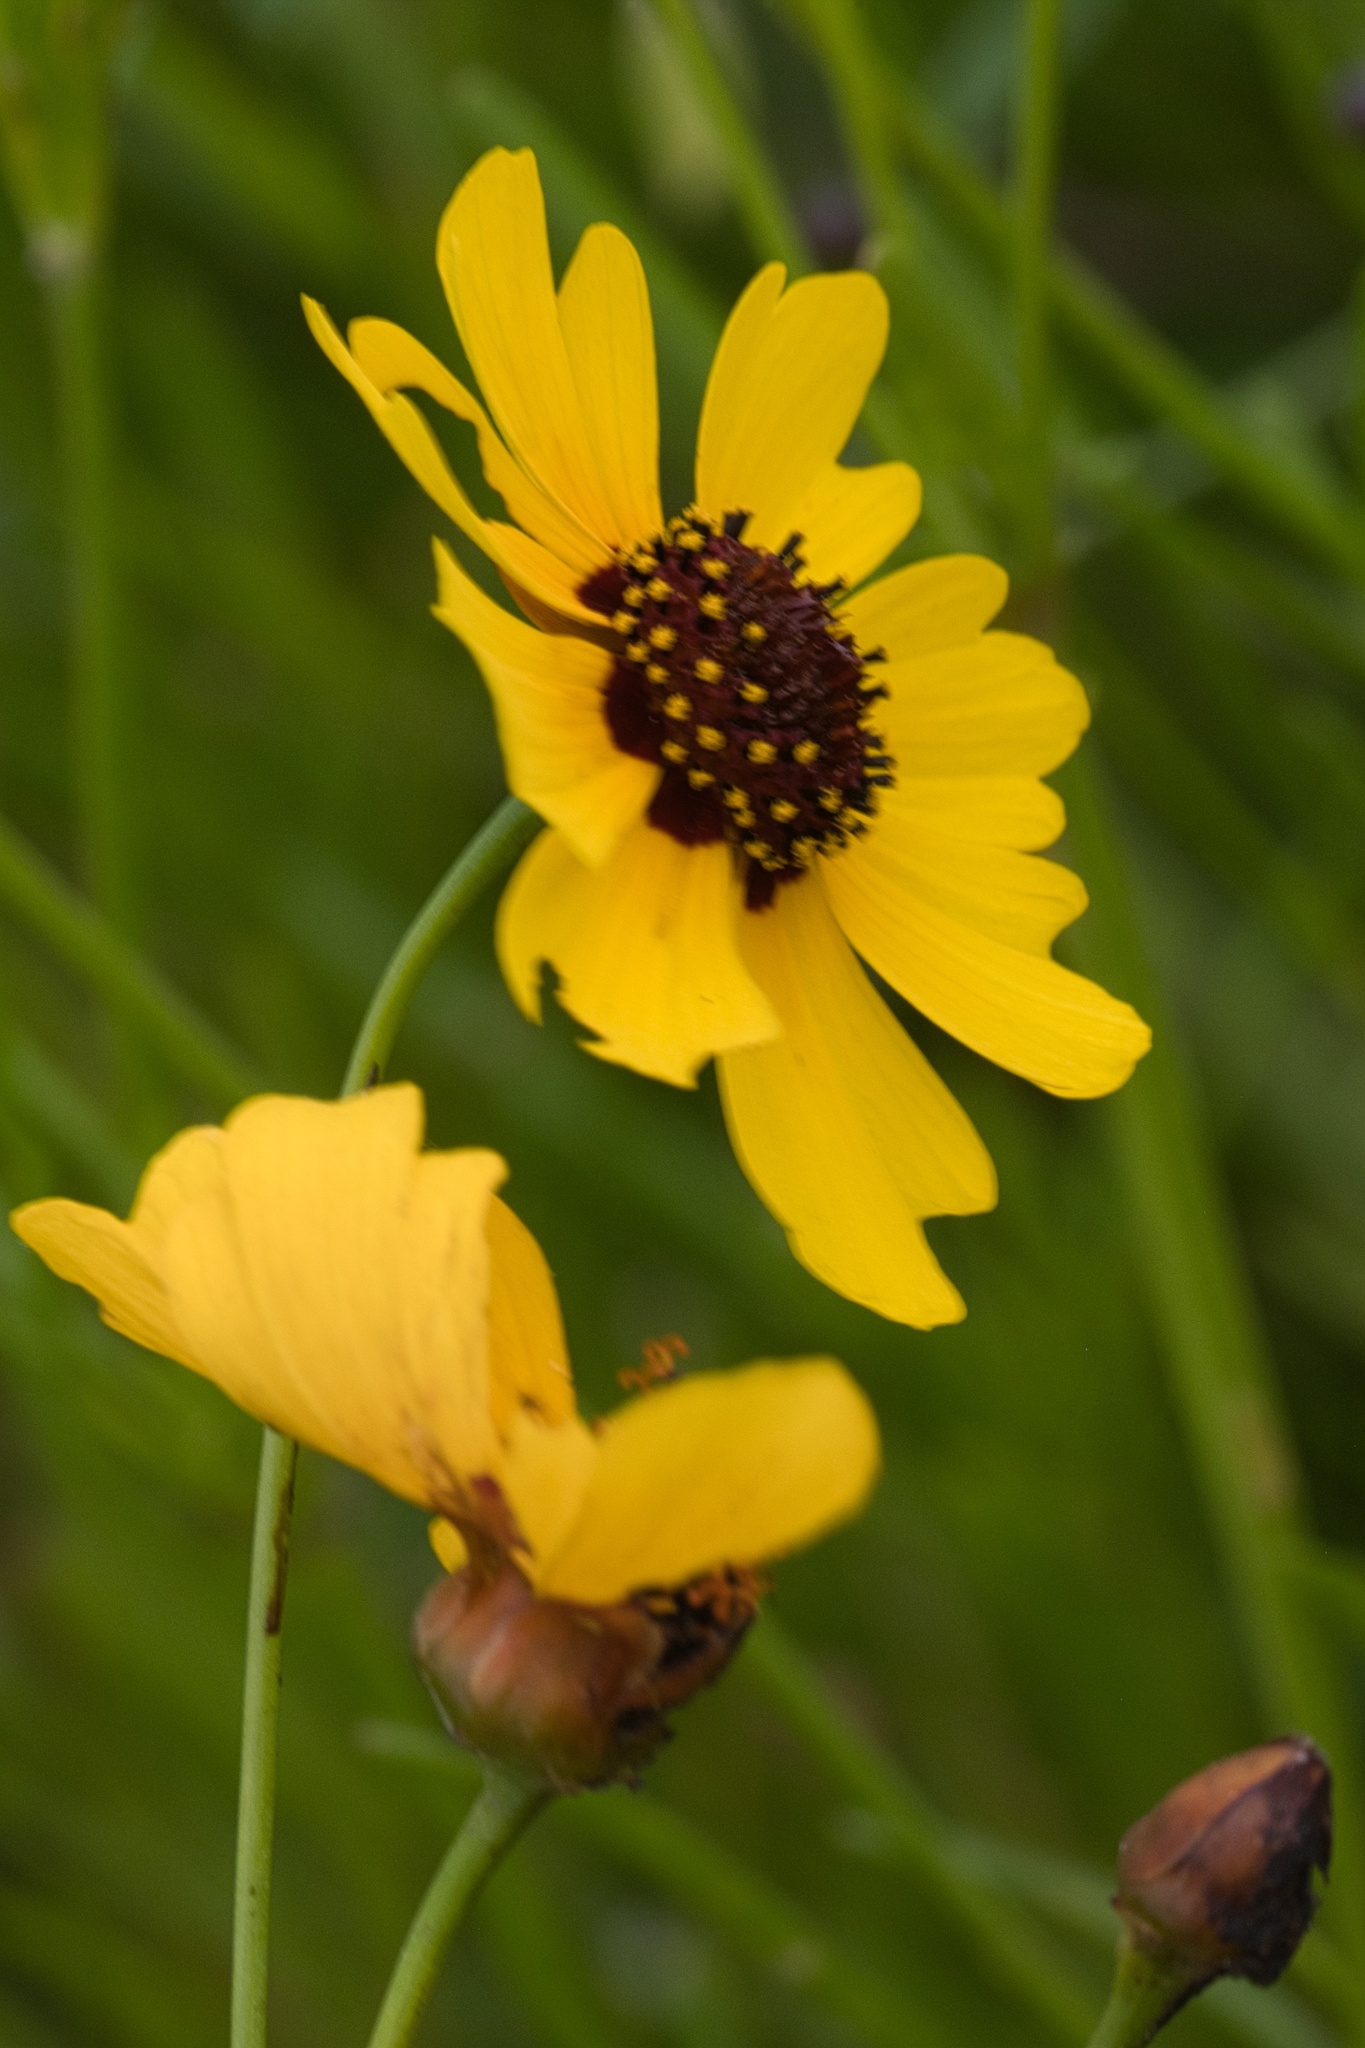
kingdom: Plantae
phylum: Tracheophyta
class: Magnoliopsida
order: Asterales
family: Asteraceae
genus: Coreopsis
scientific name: Coreopsis tinctoria
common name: Garden tickseed
